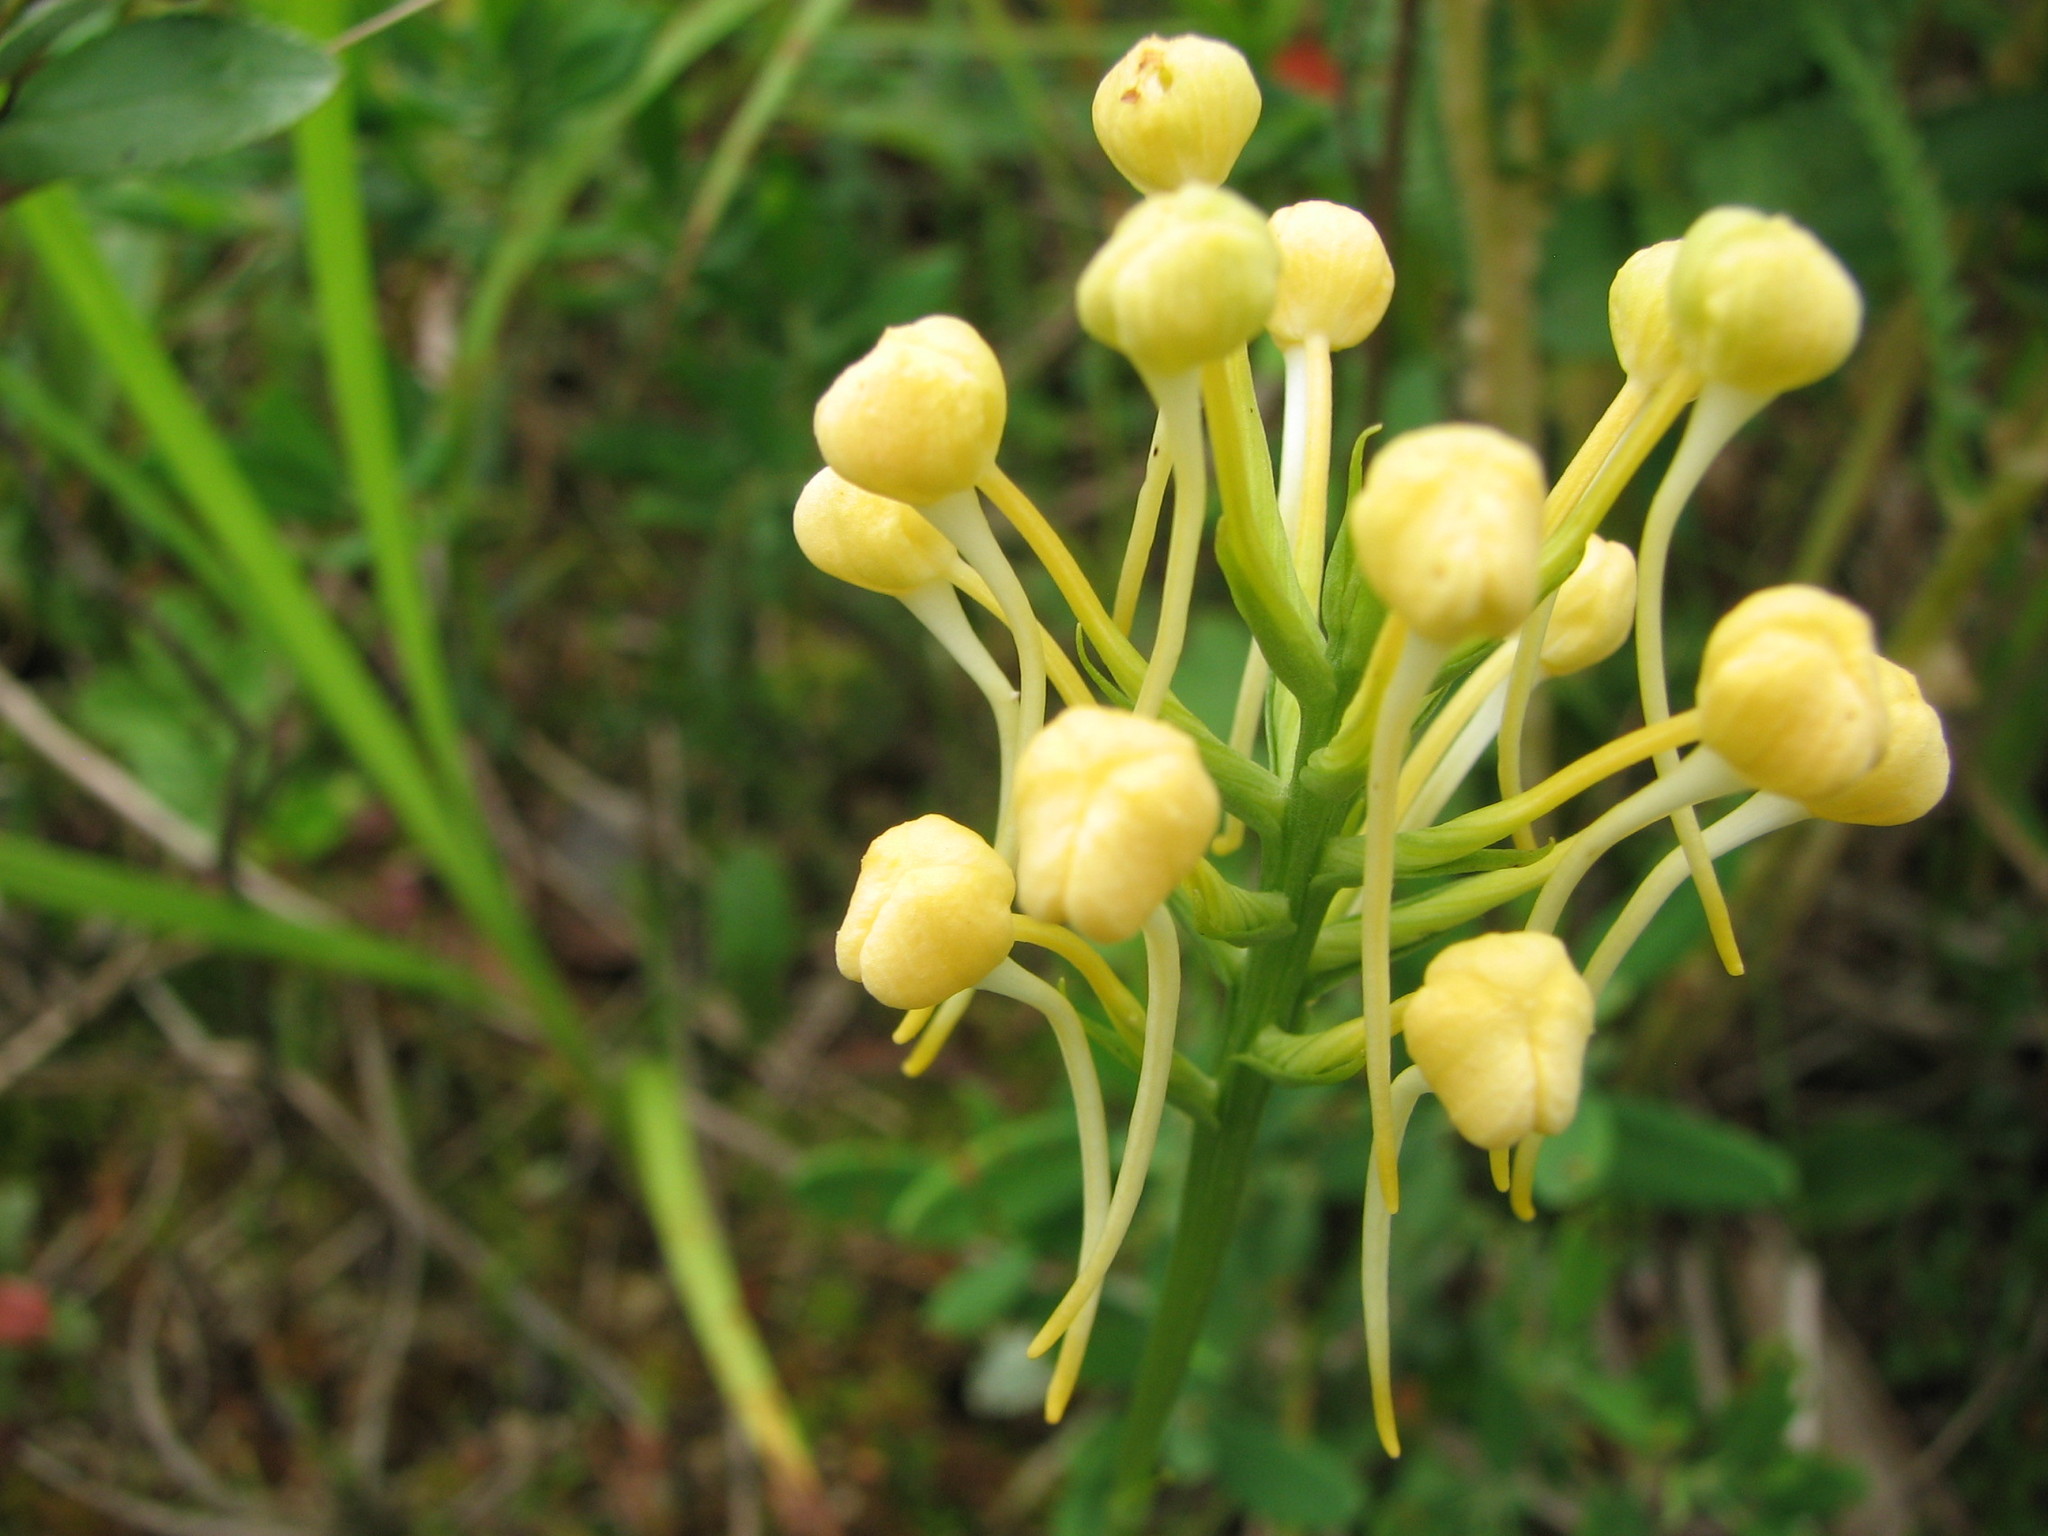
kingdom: Plantae
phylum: Tracheophyta
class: Liliopsida
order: Asparagales
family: Orchidaceae
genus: Platanthera
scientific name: Platanthera bicolor
